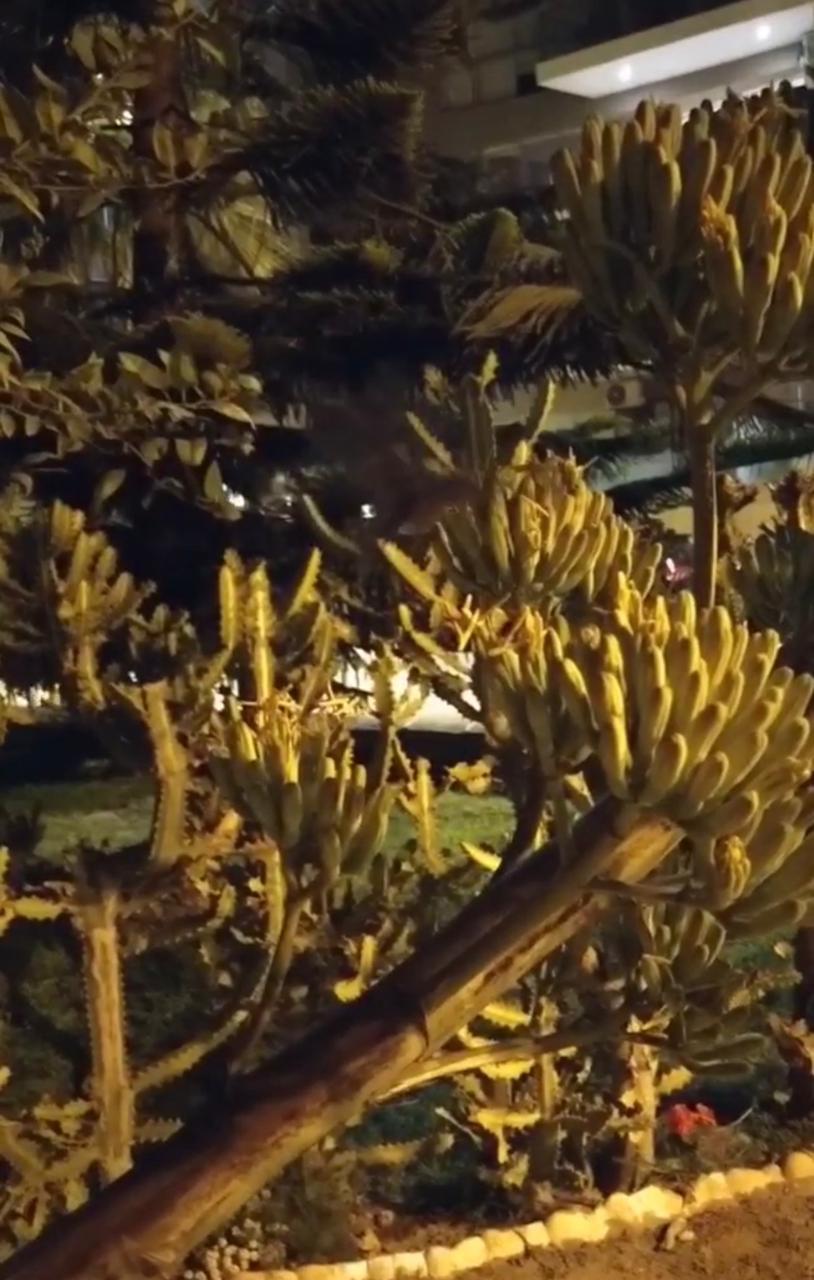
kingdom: Animalia
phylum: Chordata
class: Mammalia
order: Chiroptera
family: Phyllostomidae
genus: Glossophaga
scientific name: Glossophaga soricina
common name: Pallas's long-tongued bat
